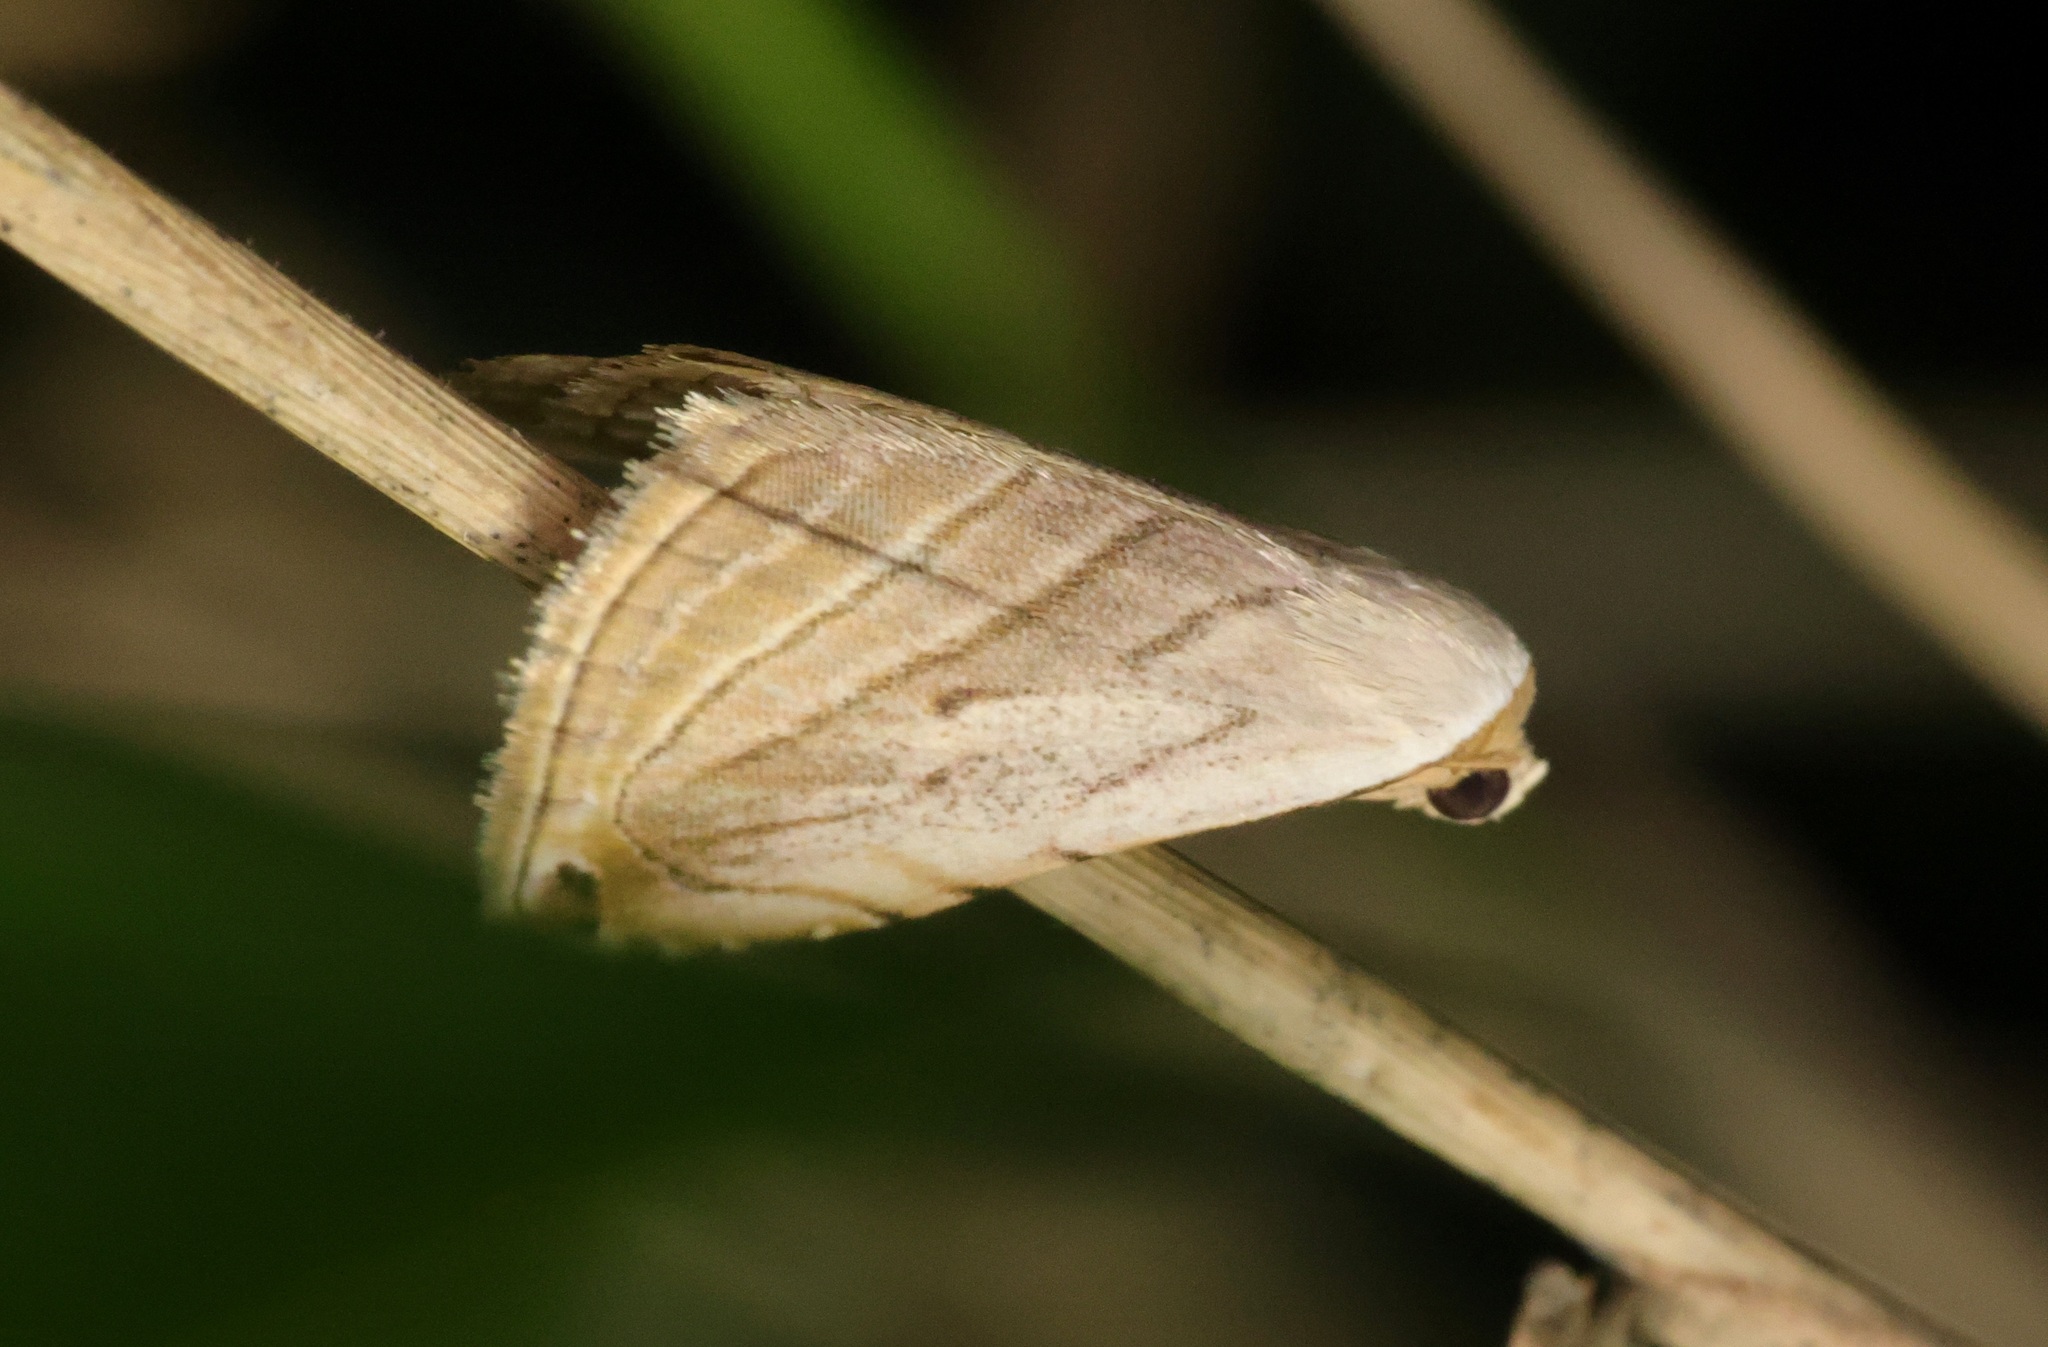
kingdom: Animalia
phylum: Arthropoda
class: Insecta
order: Lepidoptera
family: Noctuidae
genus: Honeyania
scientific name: Honeyania ragusana
